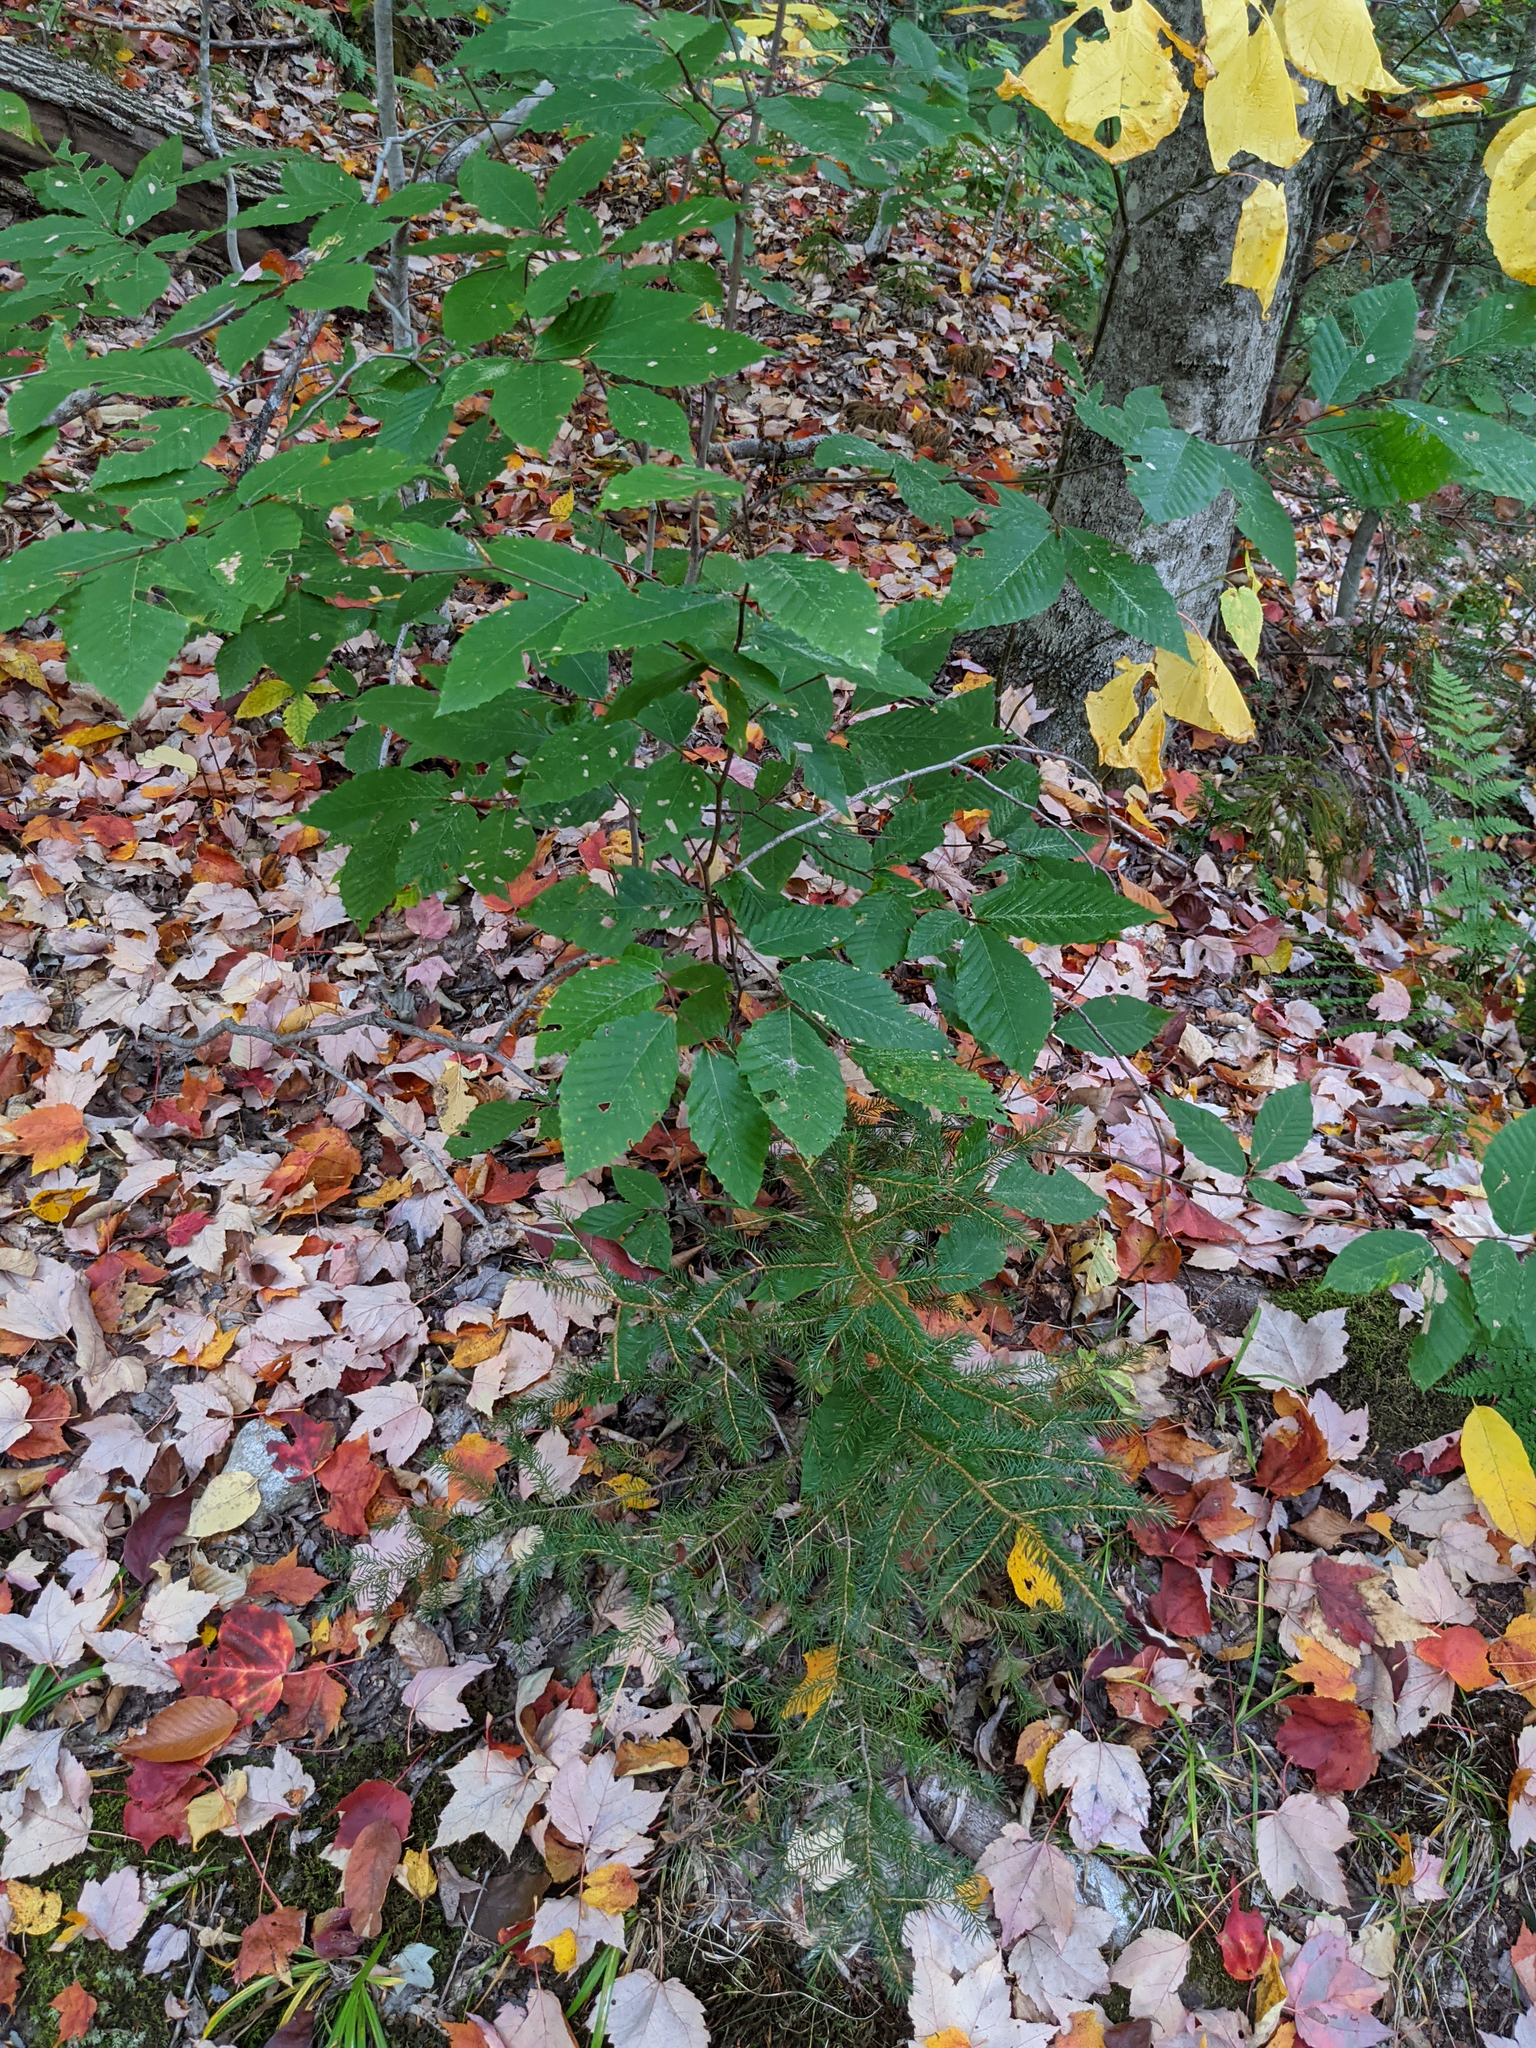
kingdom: Plantae
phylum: Tracheophyta
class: Magnoliopsida
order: Fagales
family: Fagaceae
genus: Fagus
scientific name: Fagus grandifolia
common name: American beech
